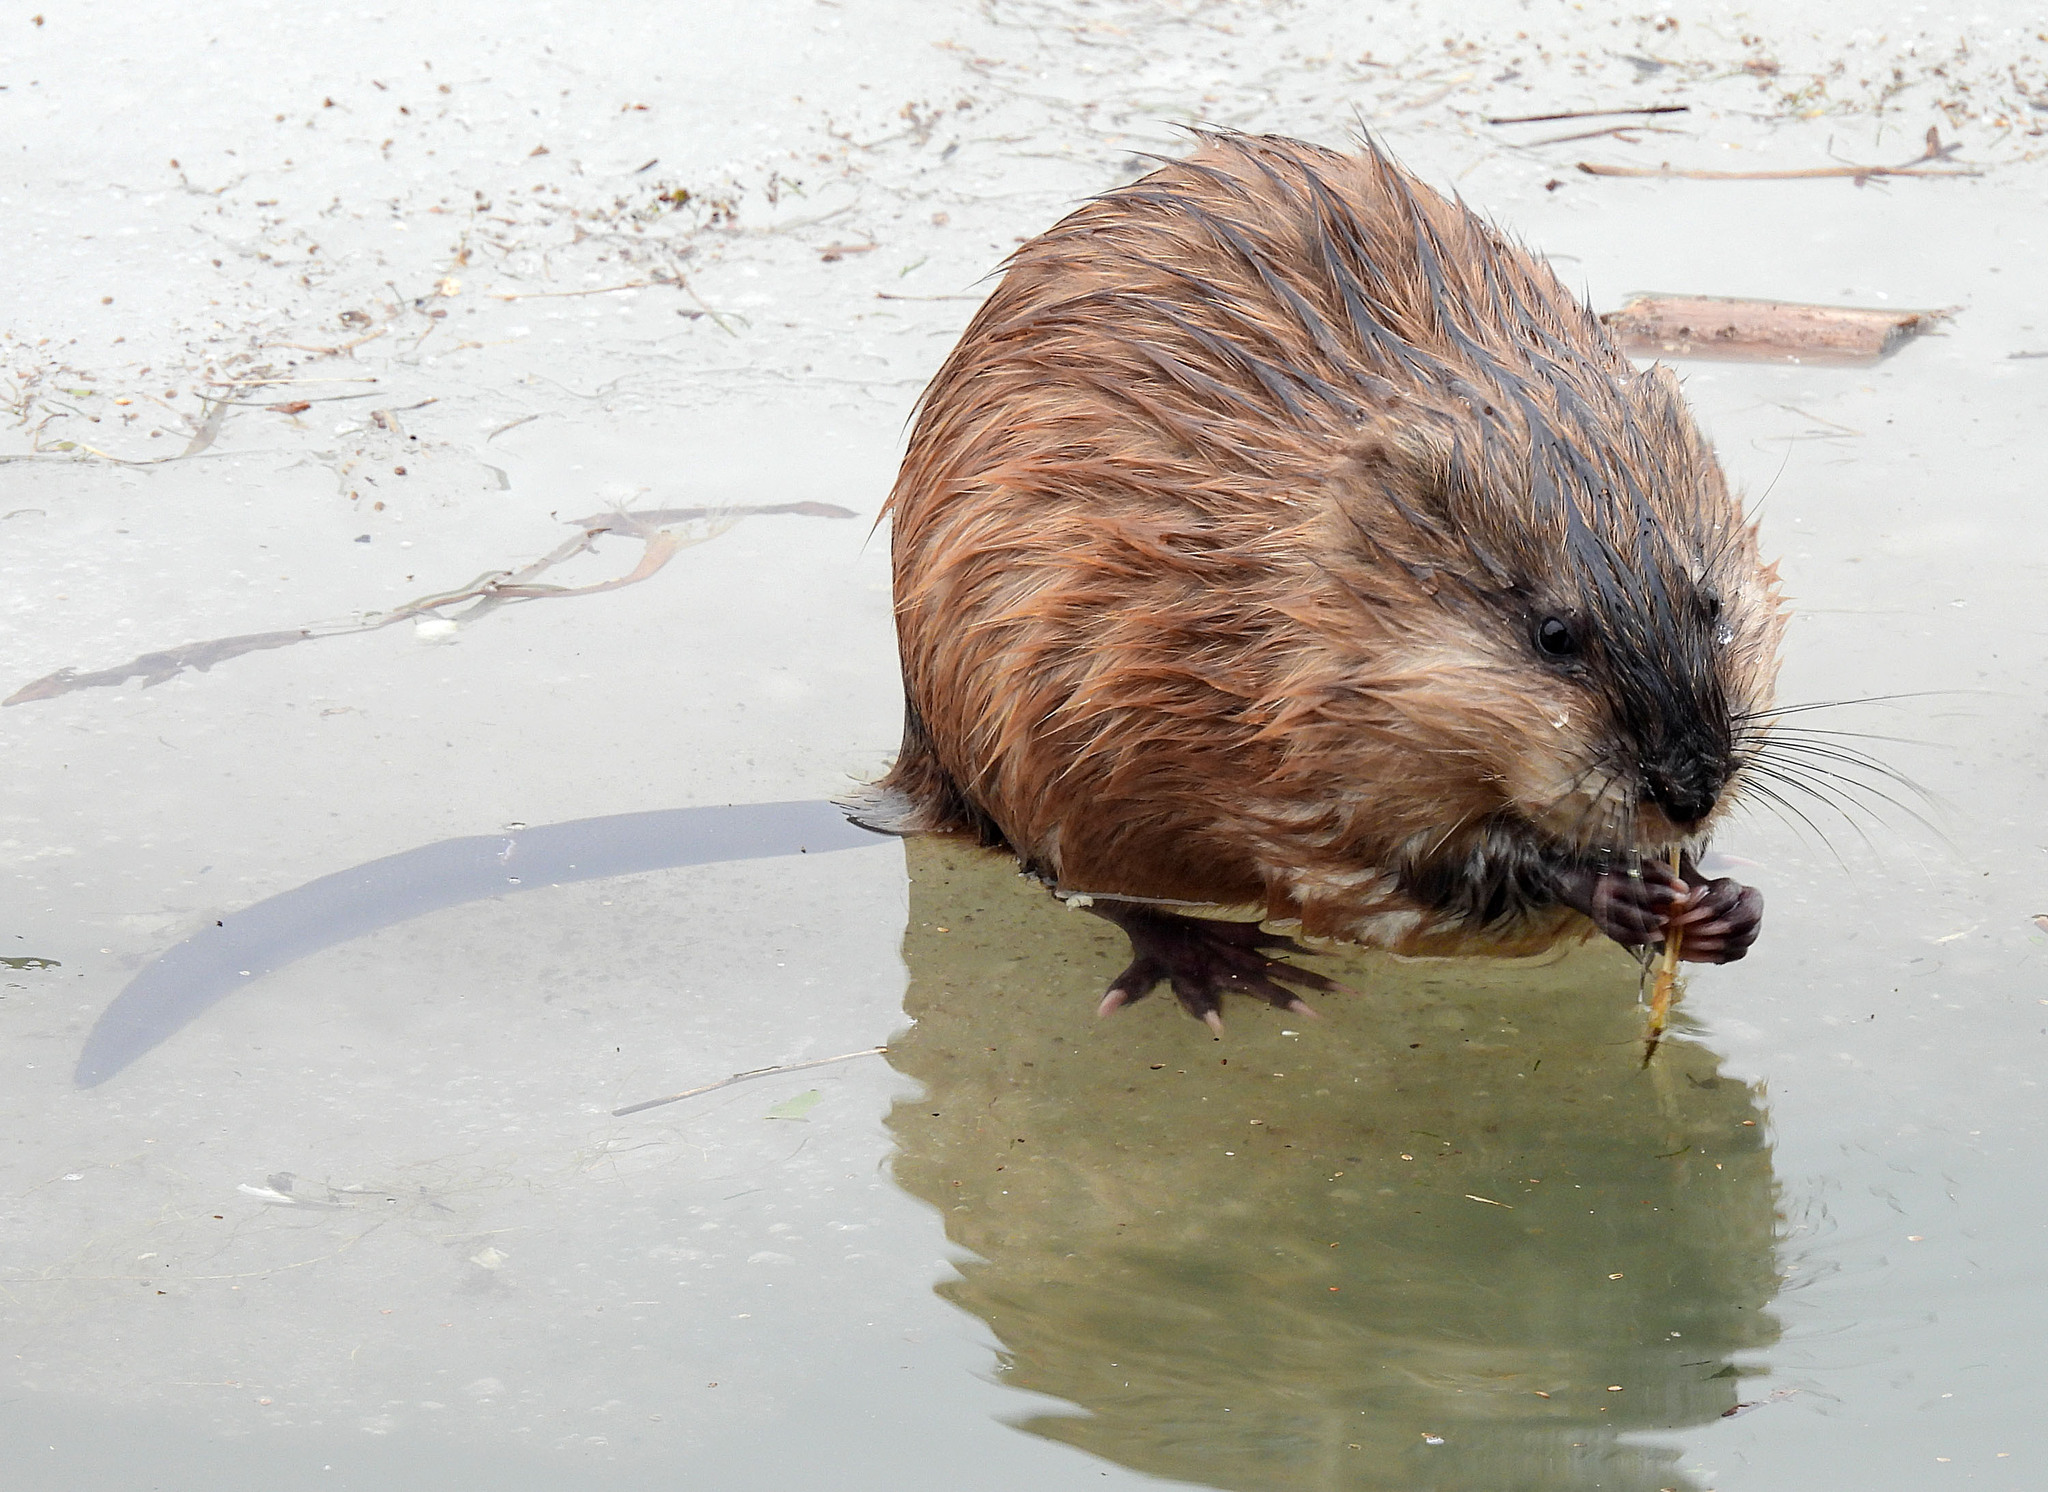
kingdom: Animalia
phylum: Chordata
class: Mammalia
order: Rodentia
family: Cricetidae
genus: Ondatra
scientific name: Ondatra zibethicus
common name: Muskrat
